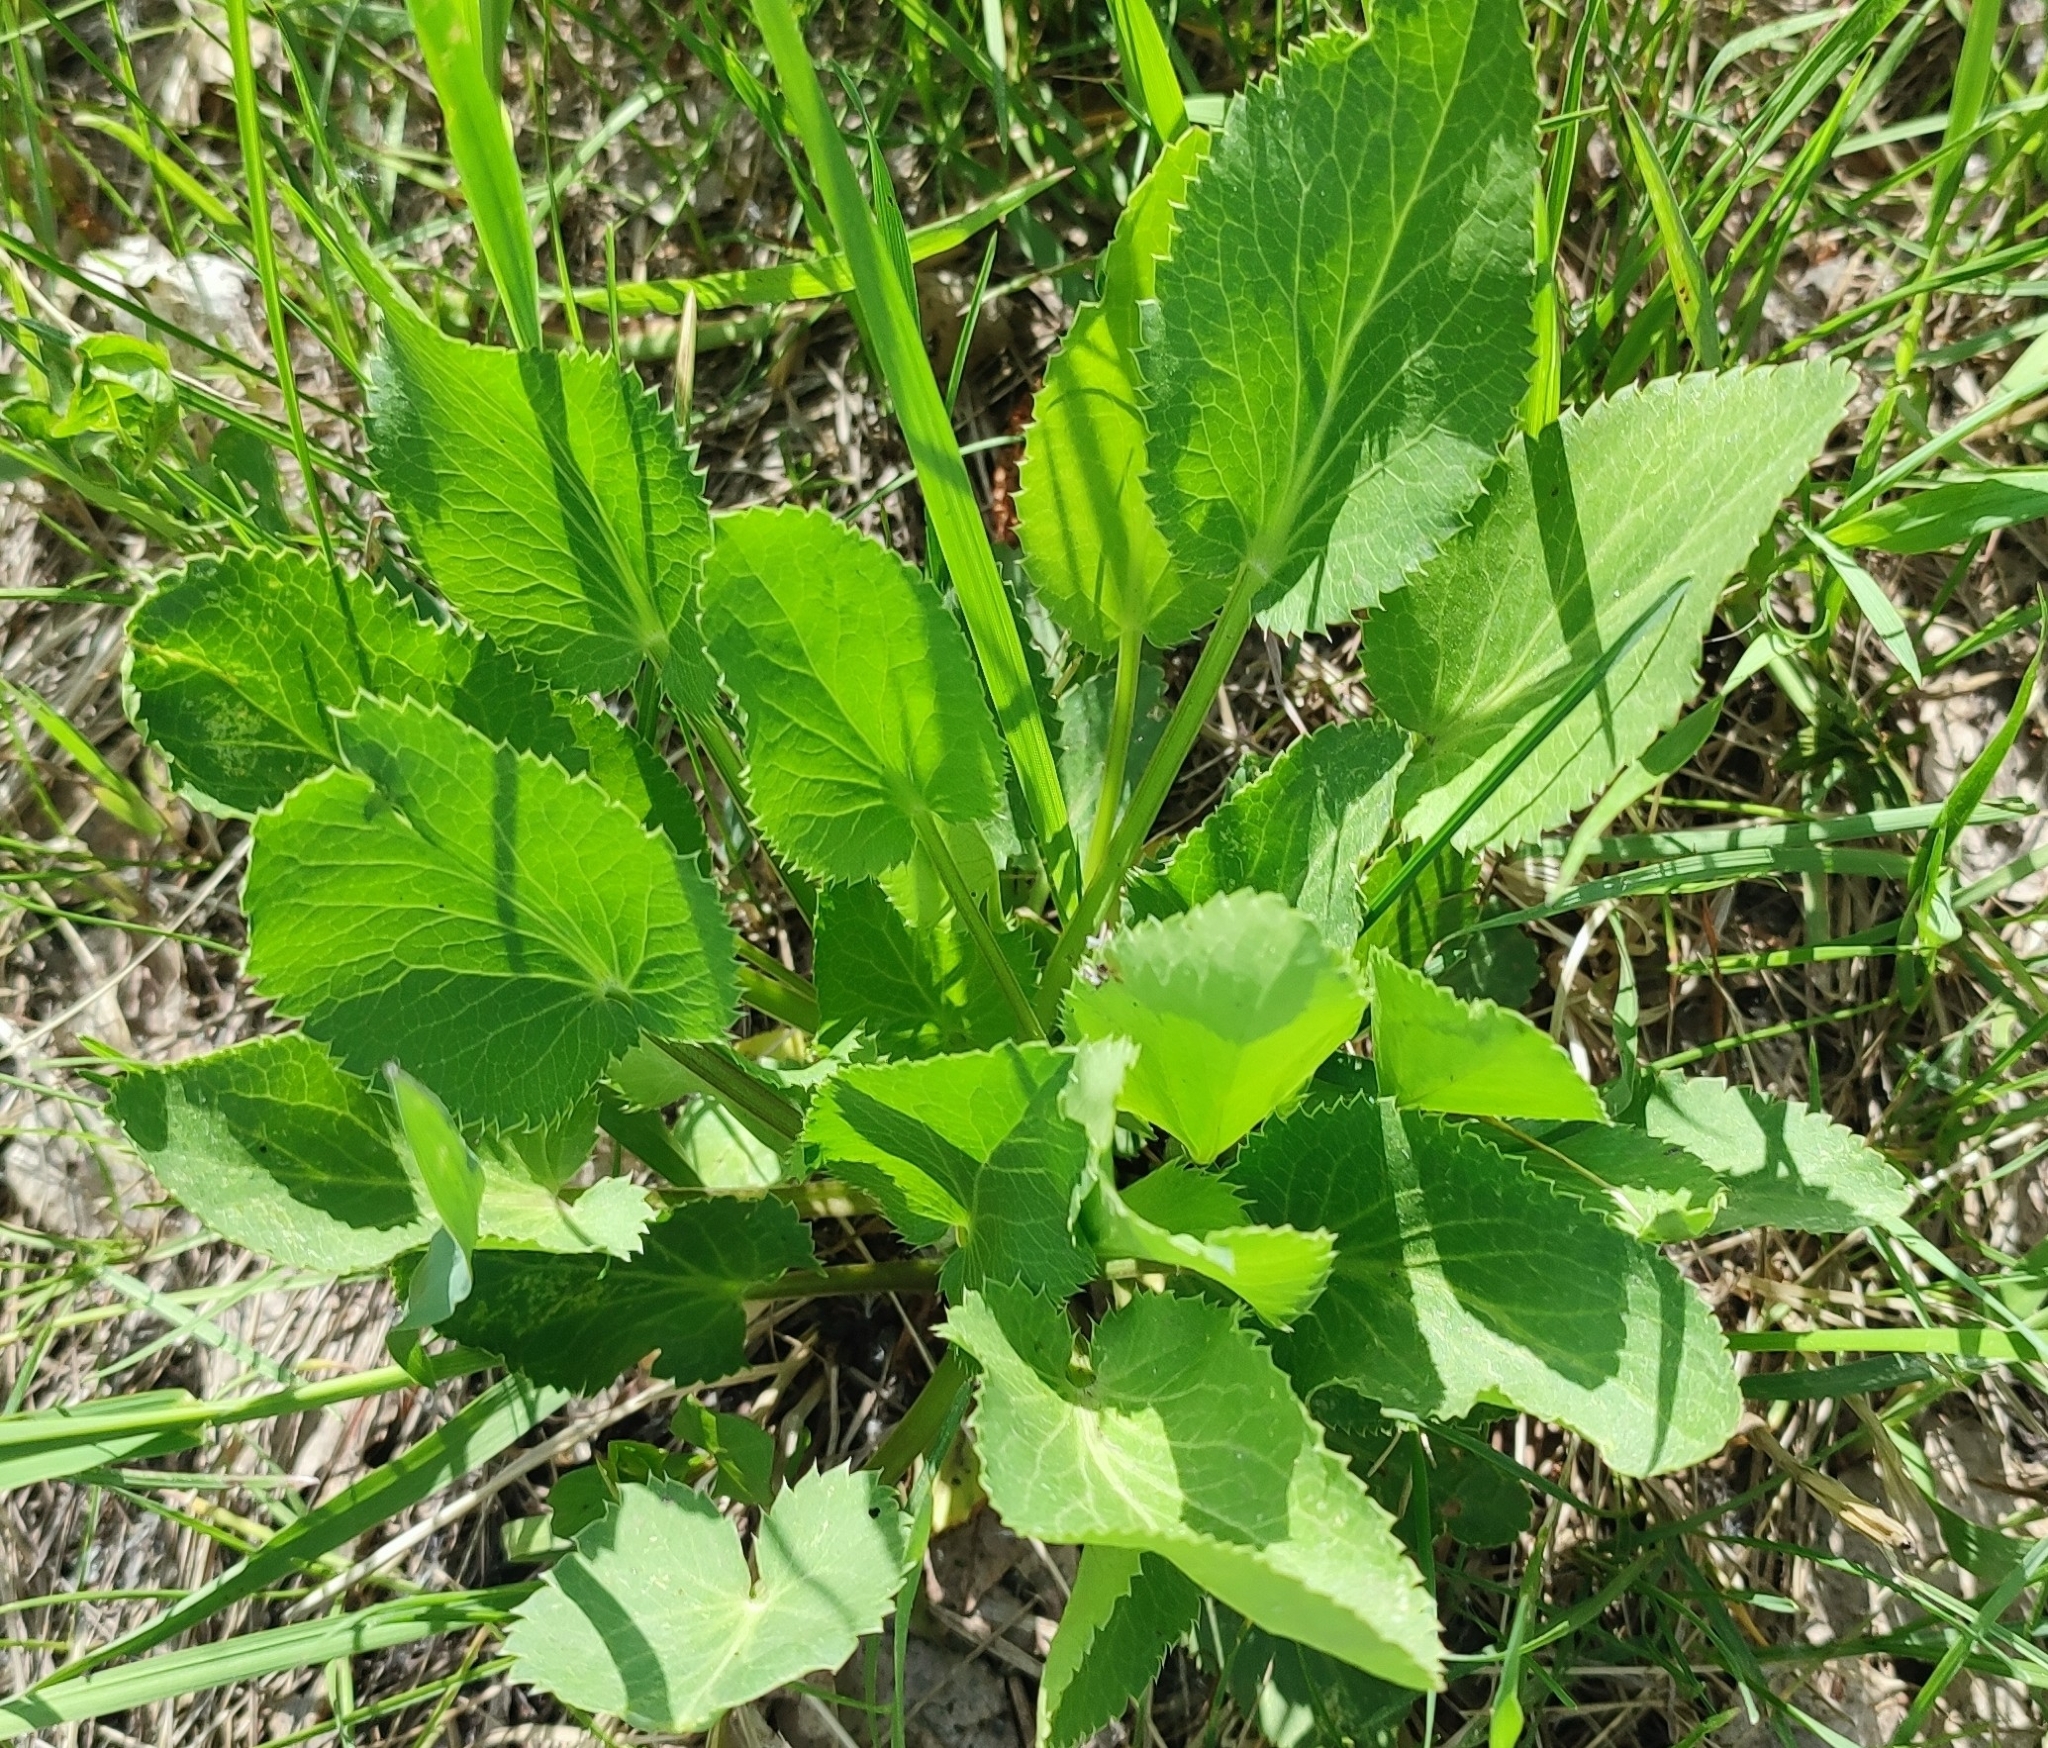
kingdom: Plantae
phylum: Tracheophyta
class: Magnoliopsida
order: Apiales
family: Apiaceae
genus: Eryngium
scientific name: Eryngium planum
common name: Blue eryngo
